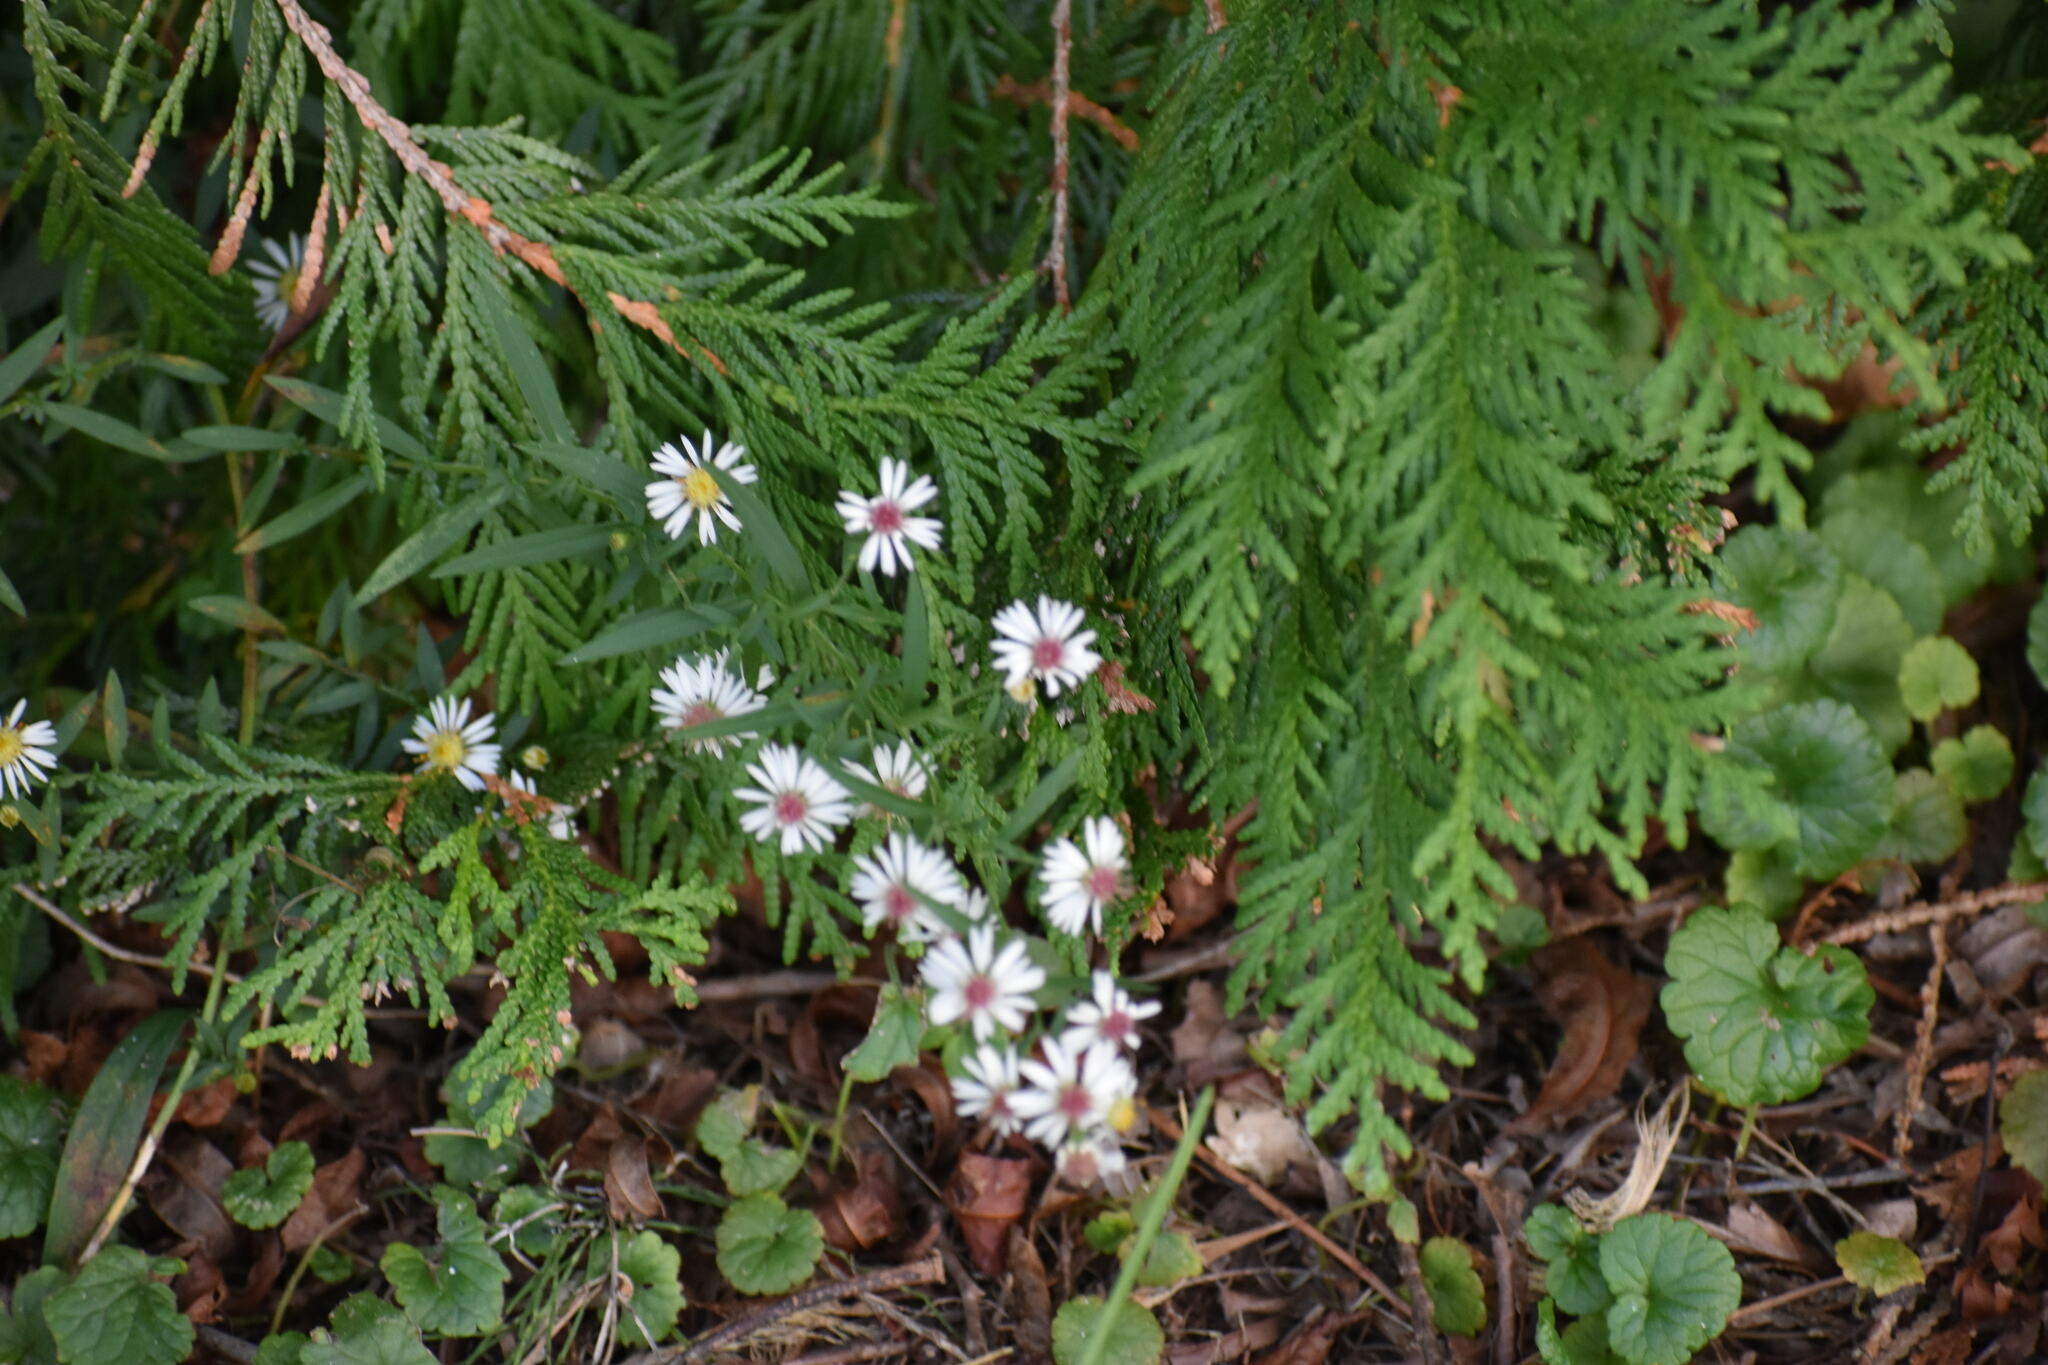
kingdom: Plantae
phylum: Tracheophyta
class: Magnoliopsida
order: Asterales
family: Asteraceae
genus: Symphyotrichum
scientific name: Symphyotrichum lateriflorum
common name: Calico aster
